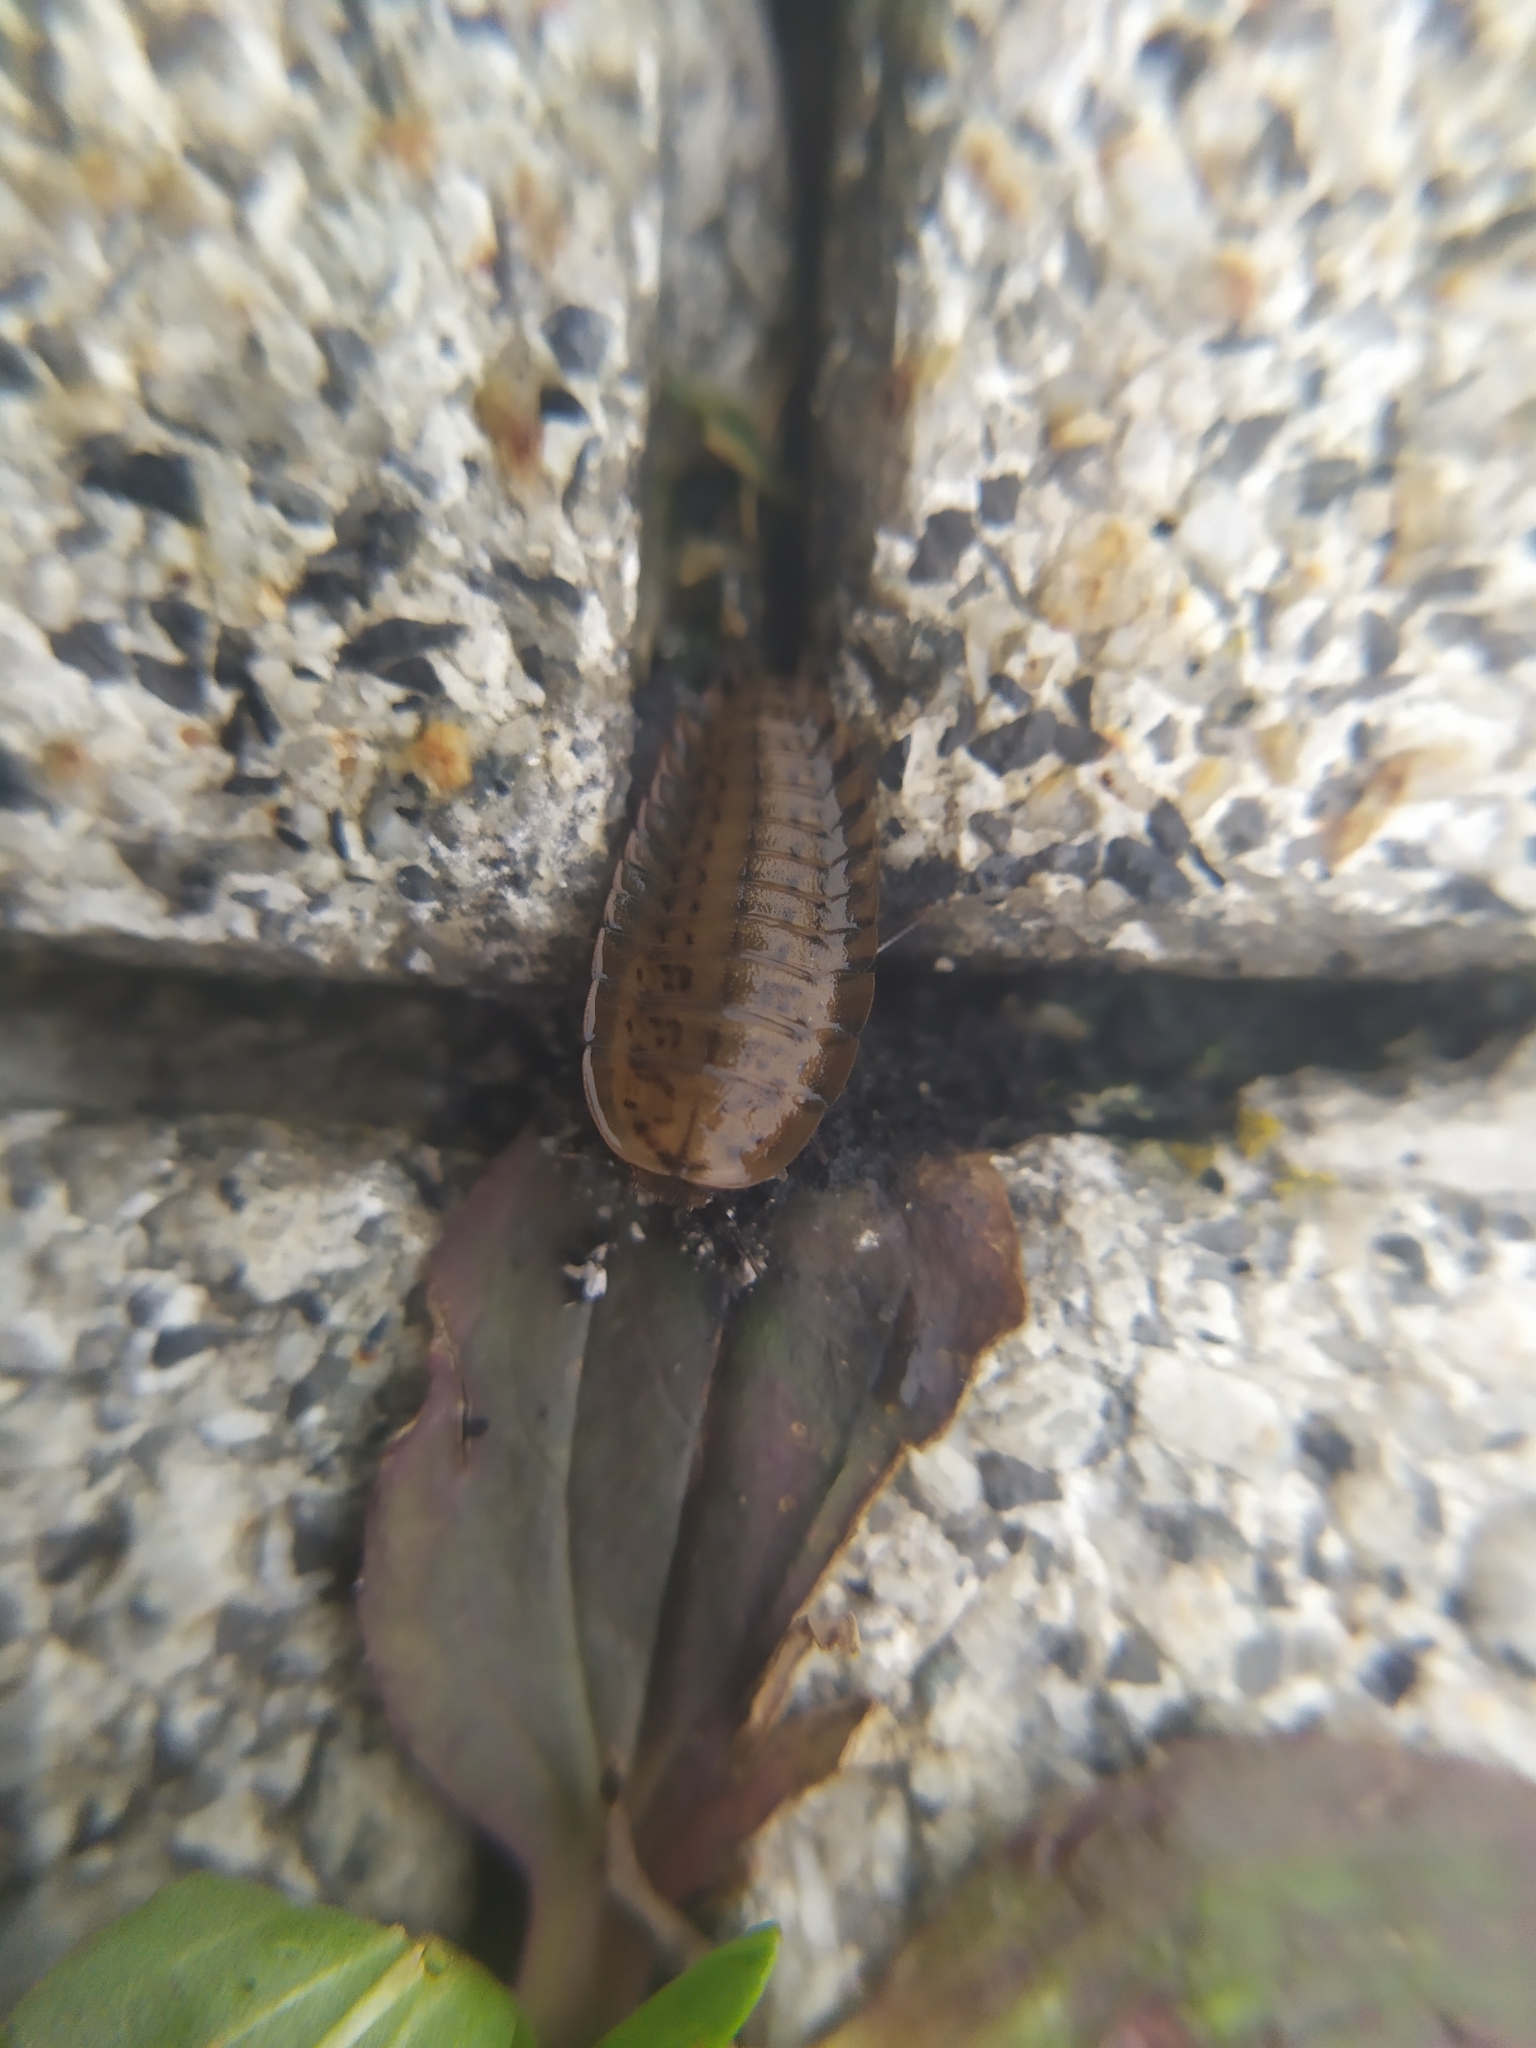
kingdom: Animalia
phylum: Arthropoda
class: Insecta
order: Coleoptera
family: Staphylinidae
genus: Silpha
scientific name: Silpha obscura
